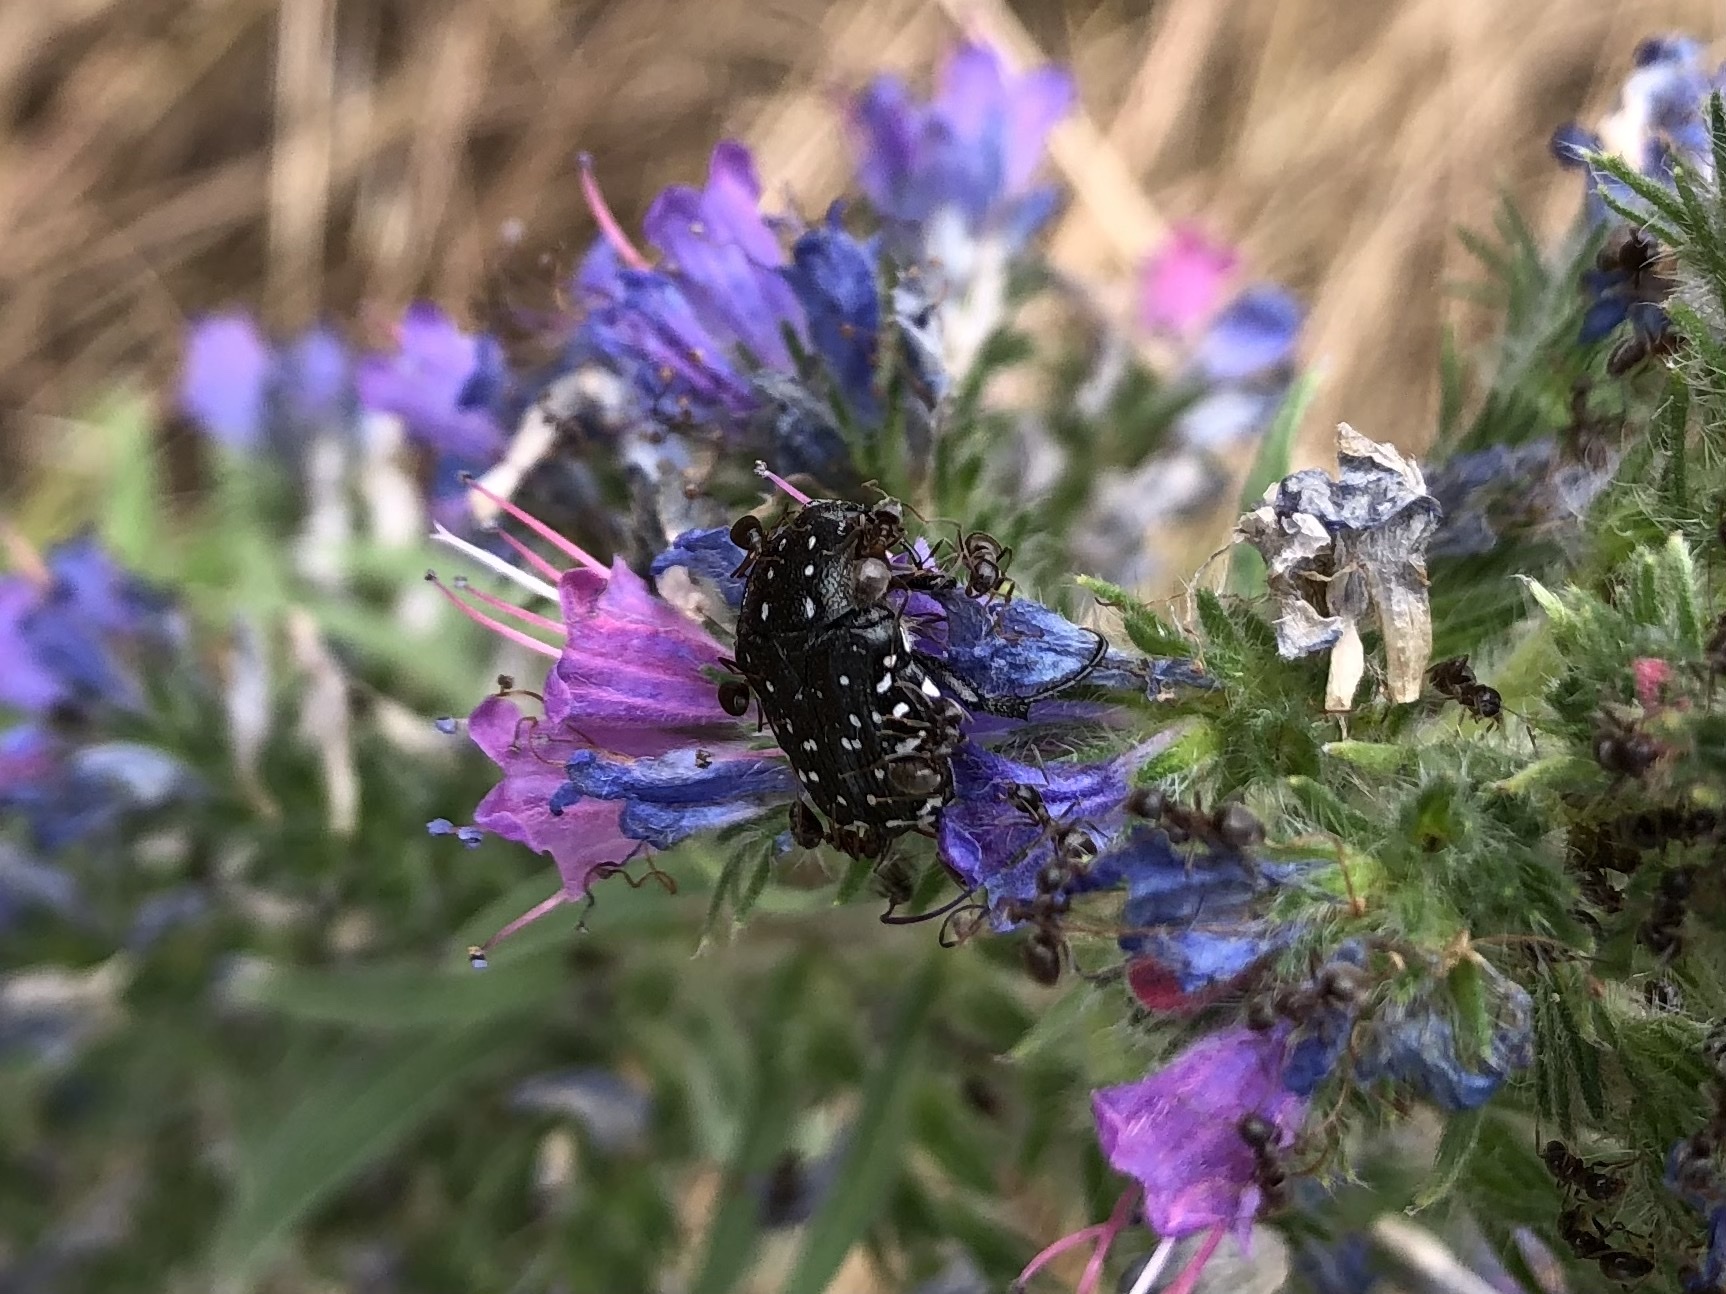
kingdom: Animalia
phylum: Arthropoda
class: Insecta
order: Coleoptera
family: Scarabaeidae
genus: Oxythyrea
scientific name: Oxythyrea funesta
